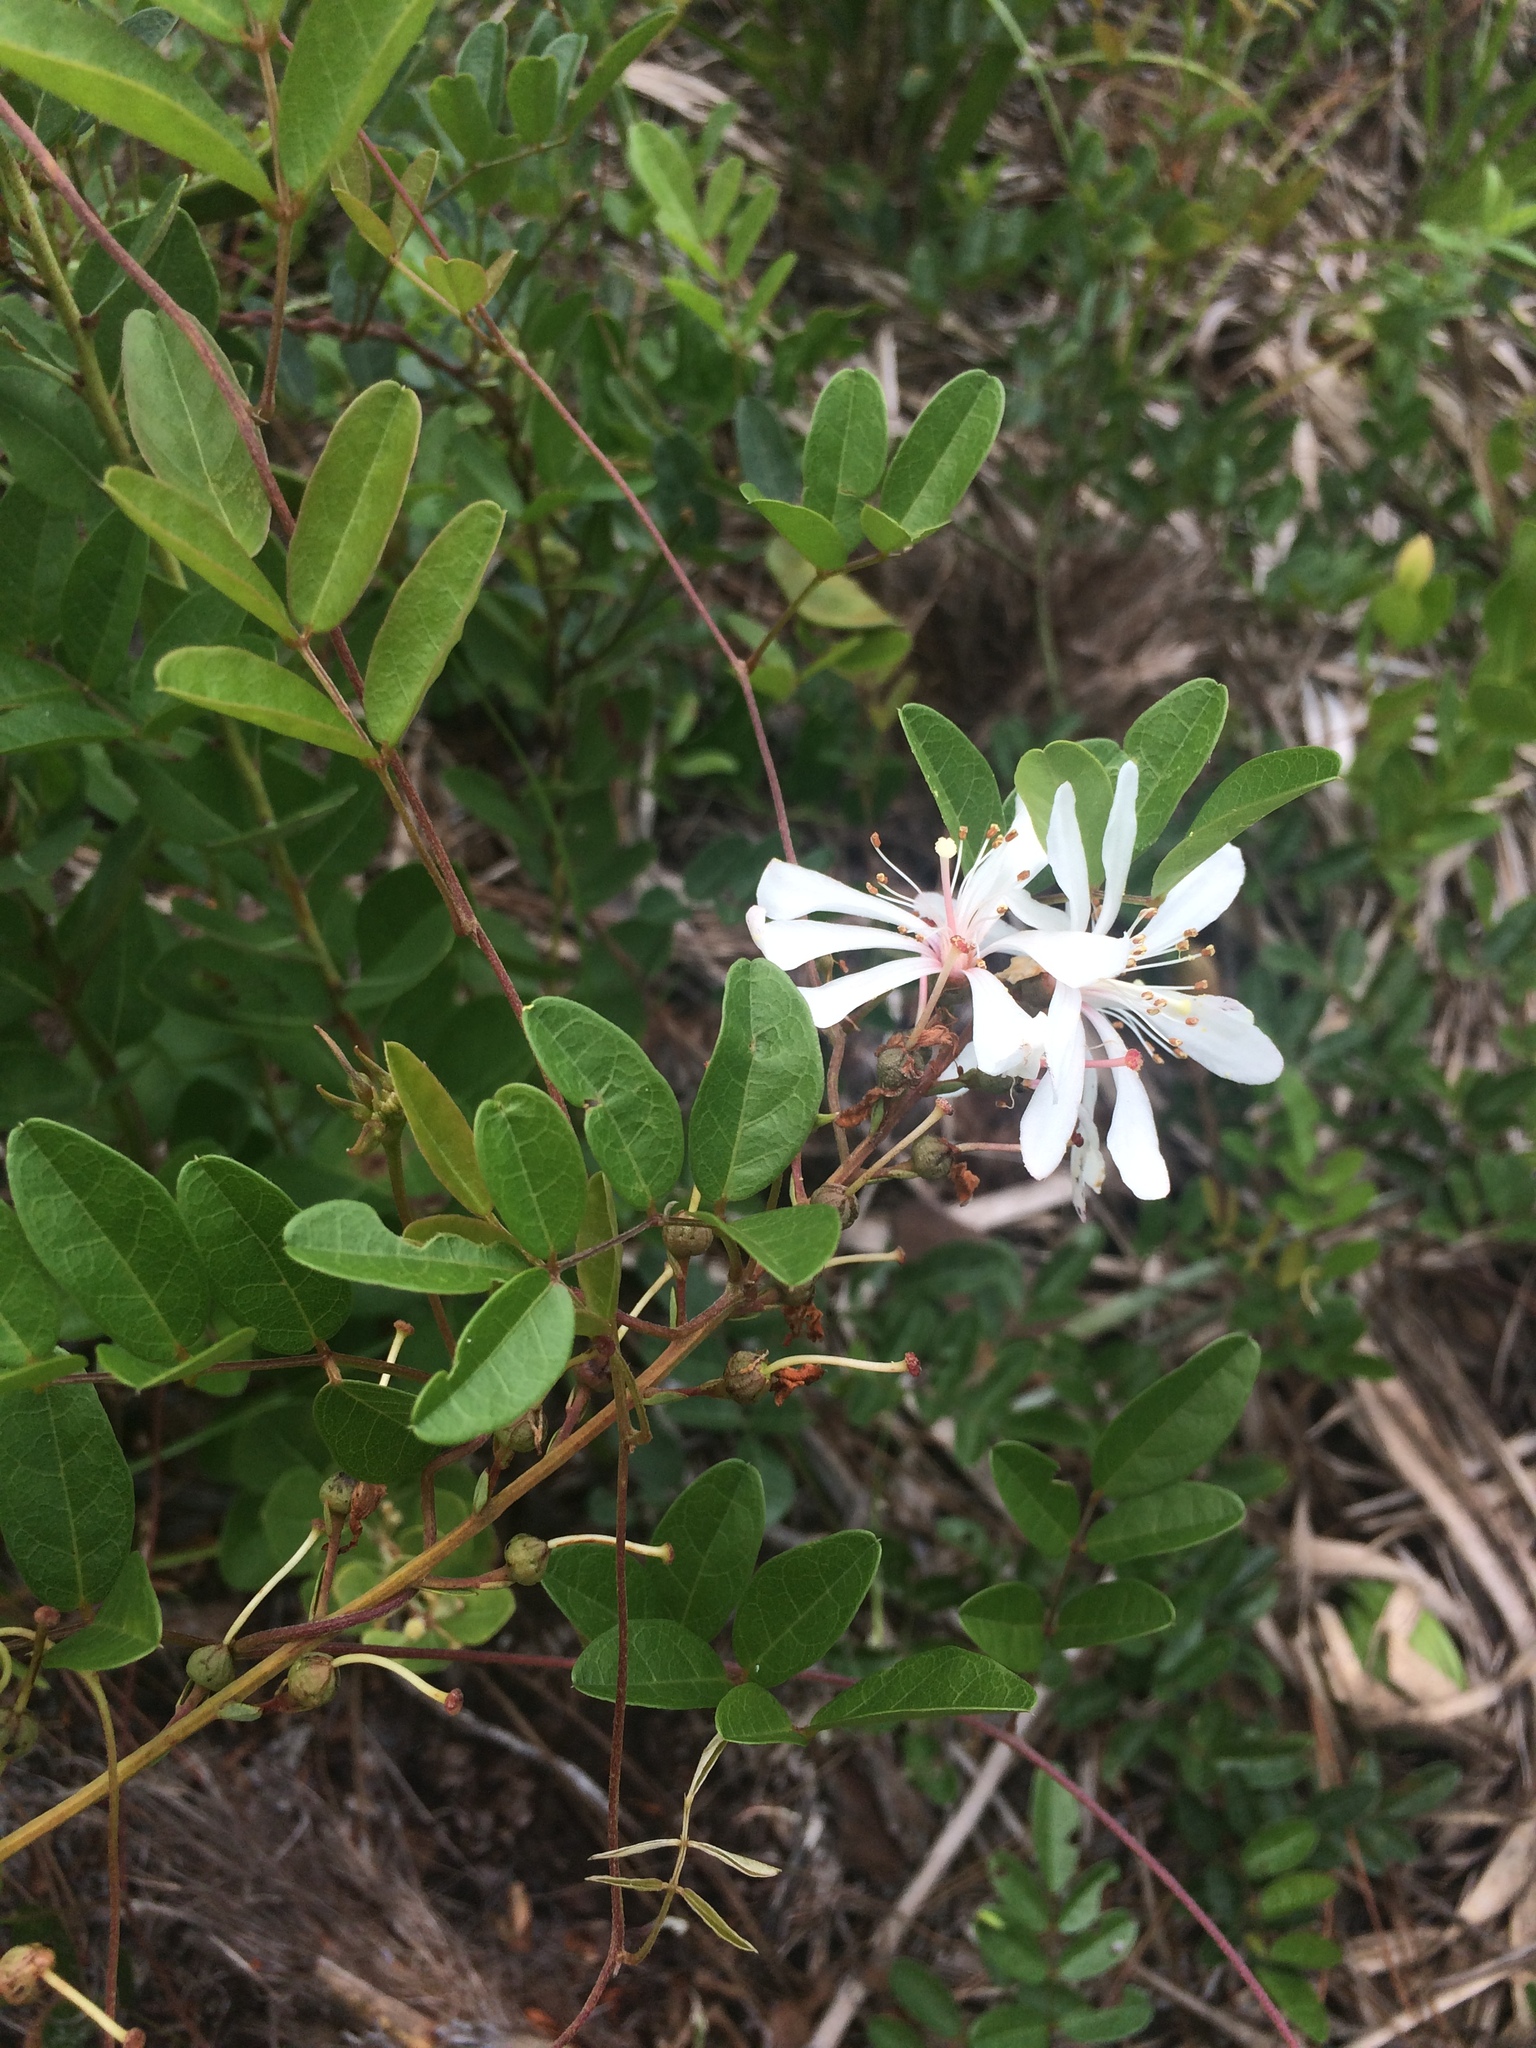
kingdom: Plantae
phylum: Tracheophyta
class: Magnoliopsida
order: Ericales
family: Ericaceae
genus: Bejaria
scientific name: Bejaria racemosa
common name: Tarflower
